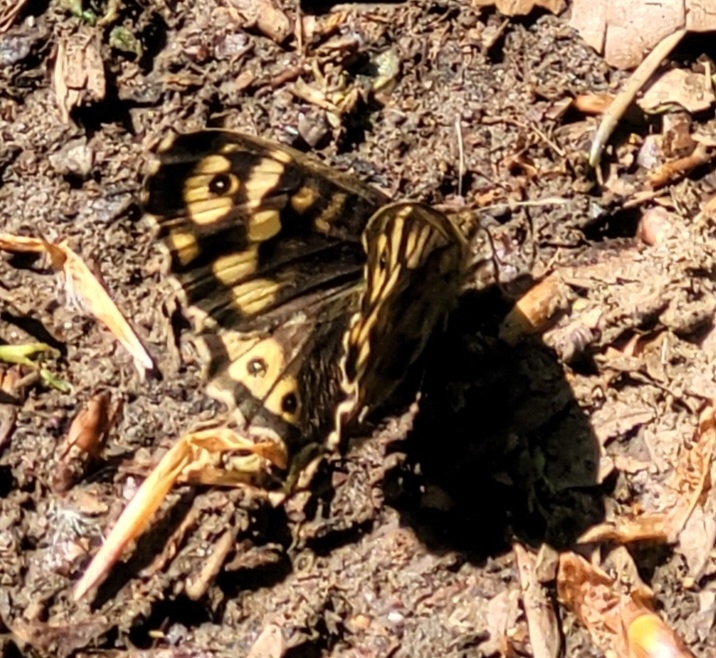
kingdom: Animalia
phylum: Arthropoda
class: Insecta
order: Lepidoptera
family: Nymphalidae
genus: Pararge
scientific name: Pararge aegeria
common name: Speckled wood
